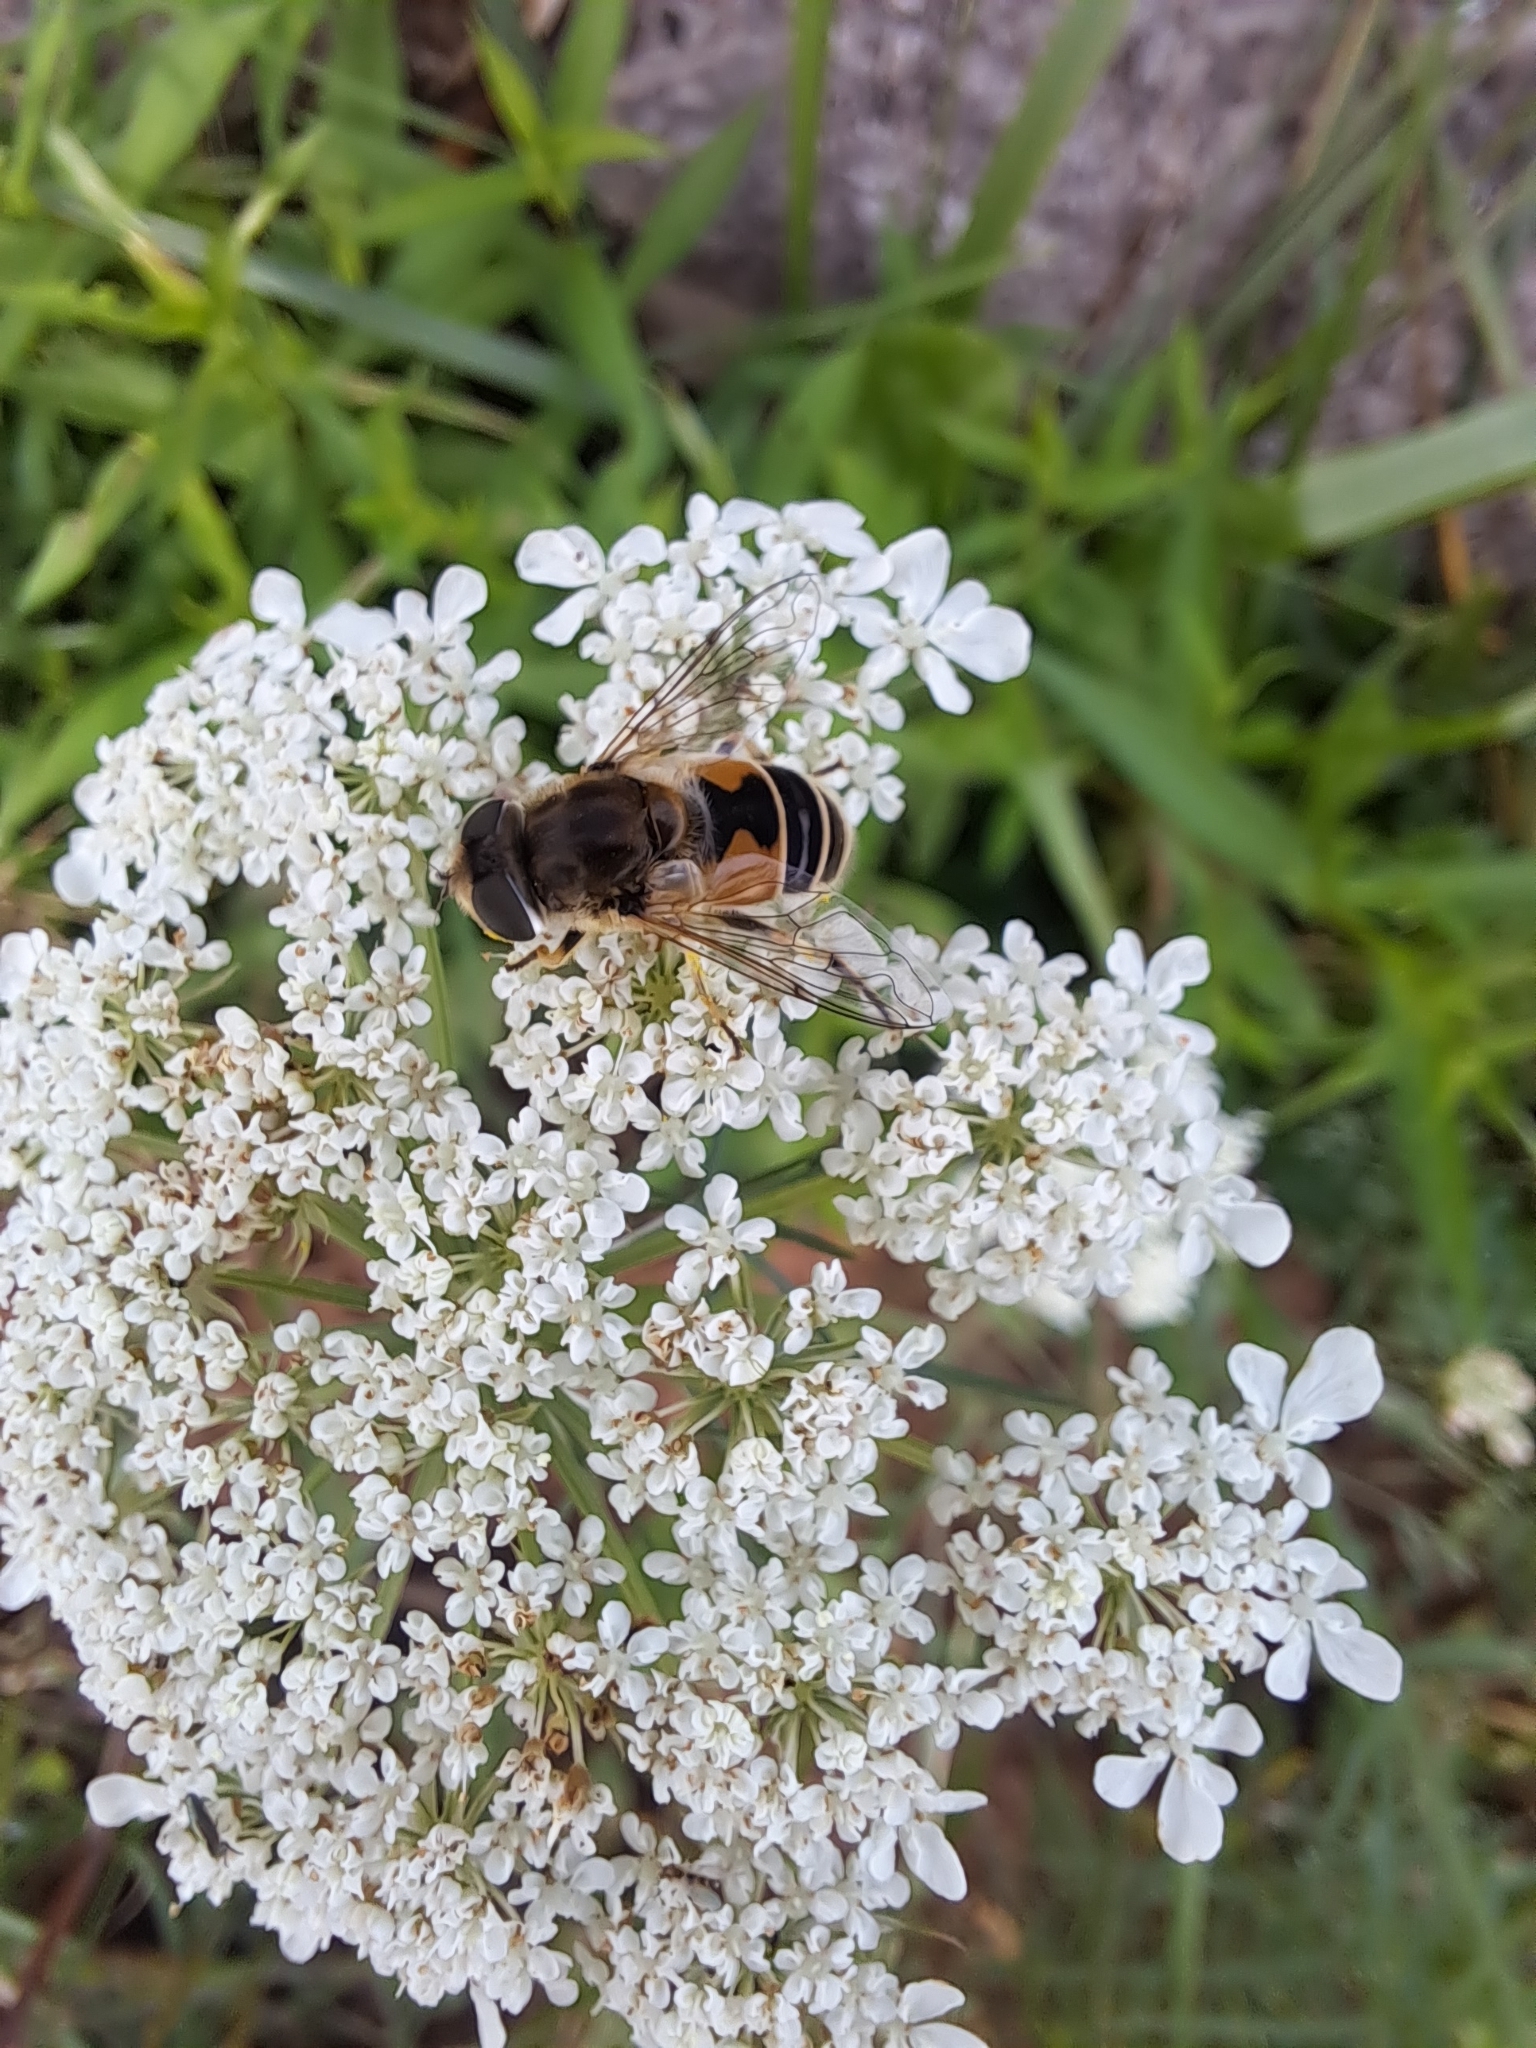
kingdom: Animalia
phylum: Arthropoda
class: Insecta
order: Diptera
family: Syrphidae
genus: Eristalis
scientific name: Eristalis arbustorum
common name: Hover fly
